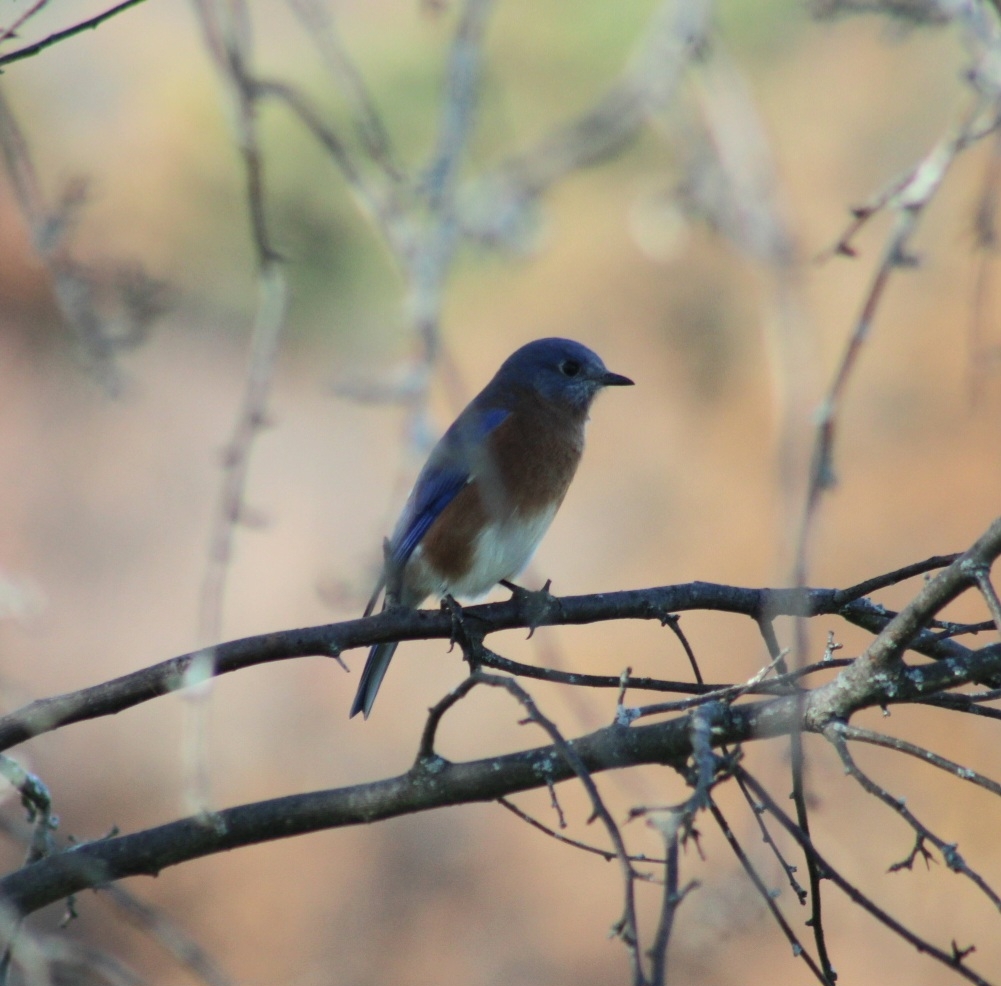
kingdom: Animalia
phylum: Chordata
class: Aves
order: Passeriformes
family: Turdidae
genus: Sialia
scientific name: Sialia sialis
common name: Eastern bluebird
